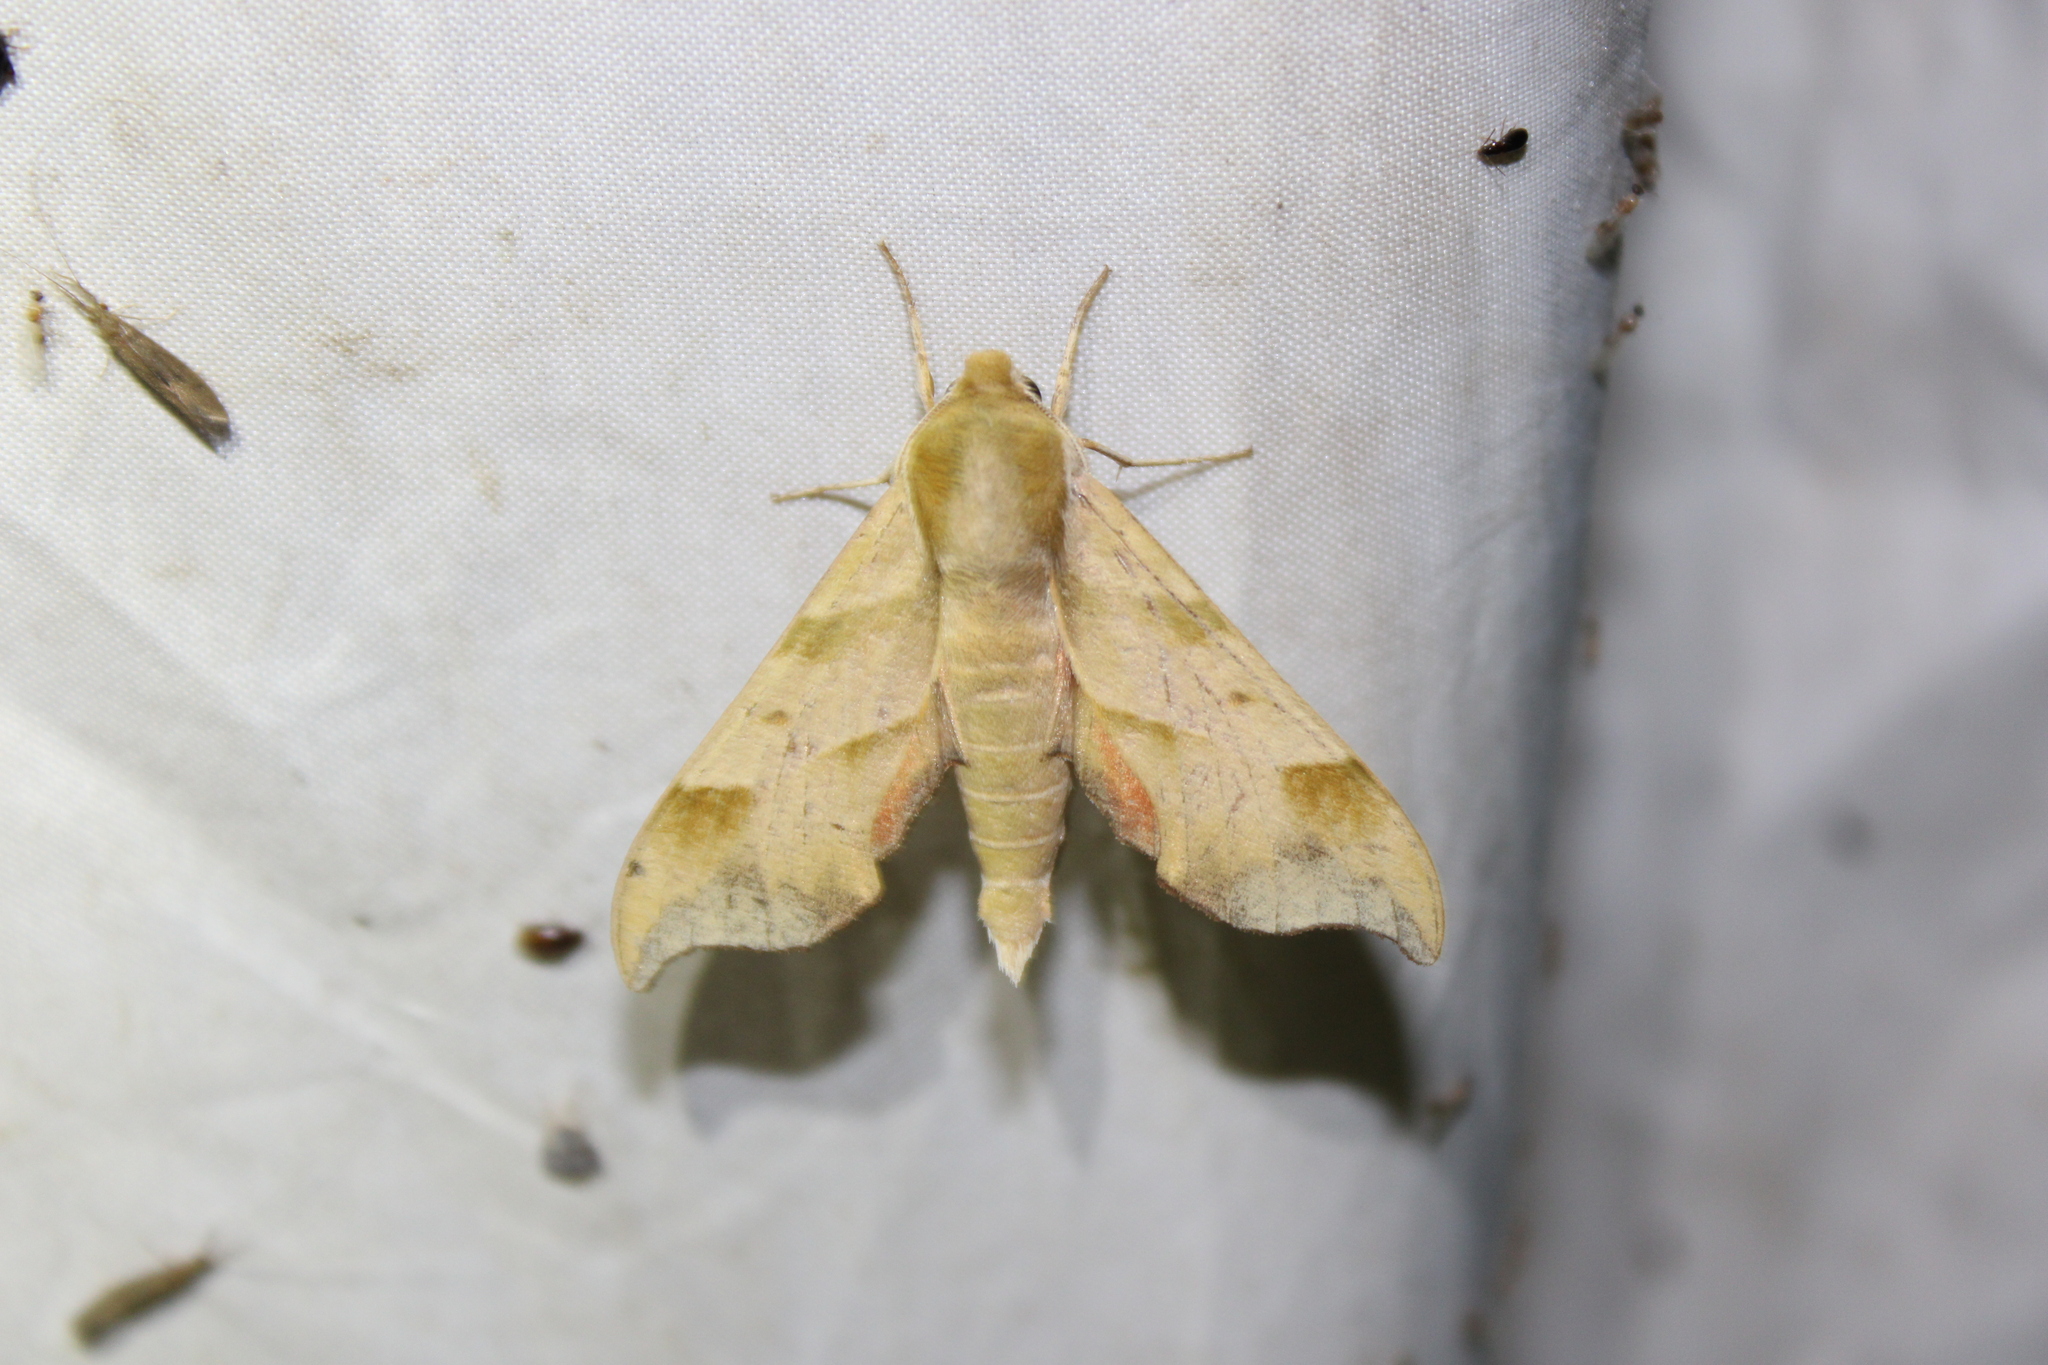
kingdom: Animalia
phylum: Arthropoda
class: Insecta
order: Lepidoptera
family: Sphingidae
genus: Darapsa
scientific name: Darapsa myron
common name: Hog sphinx
